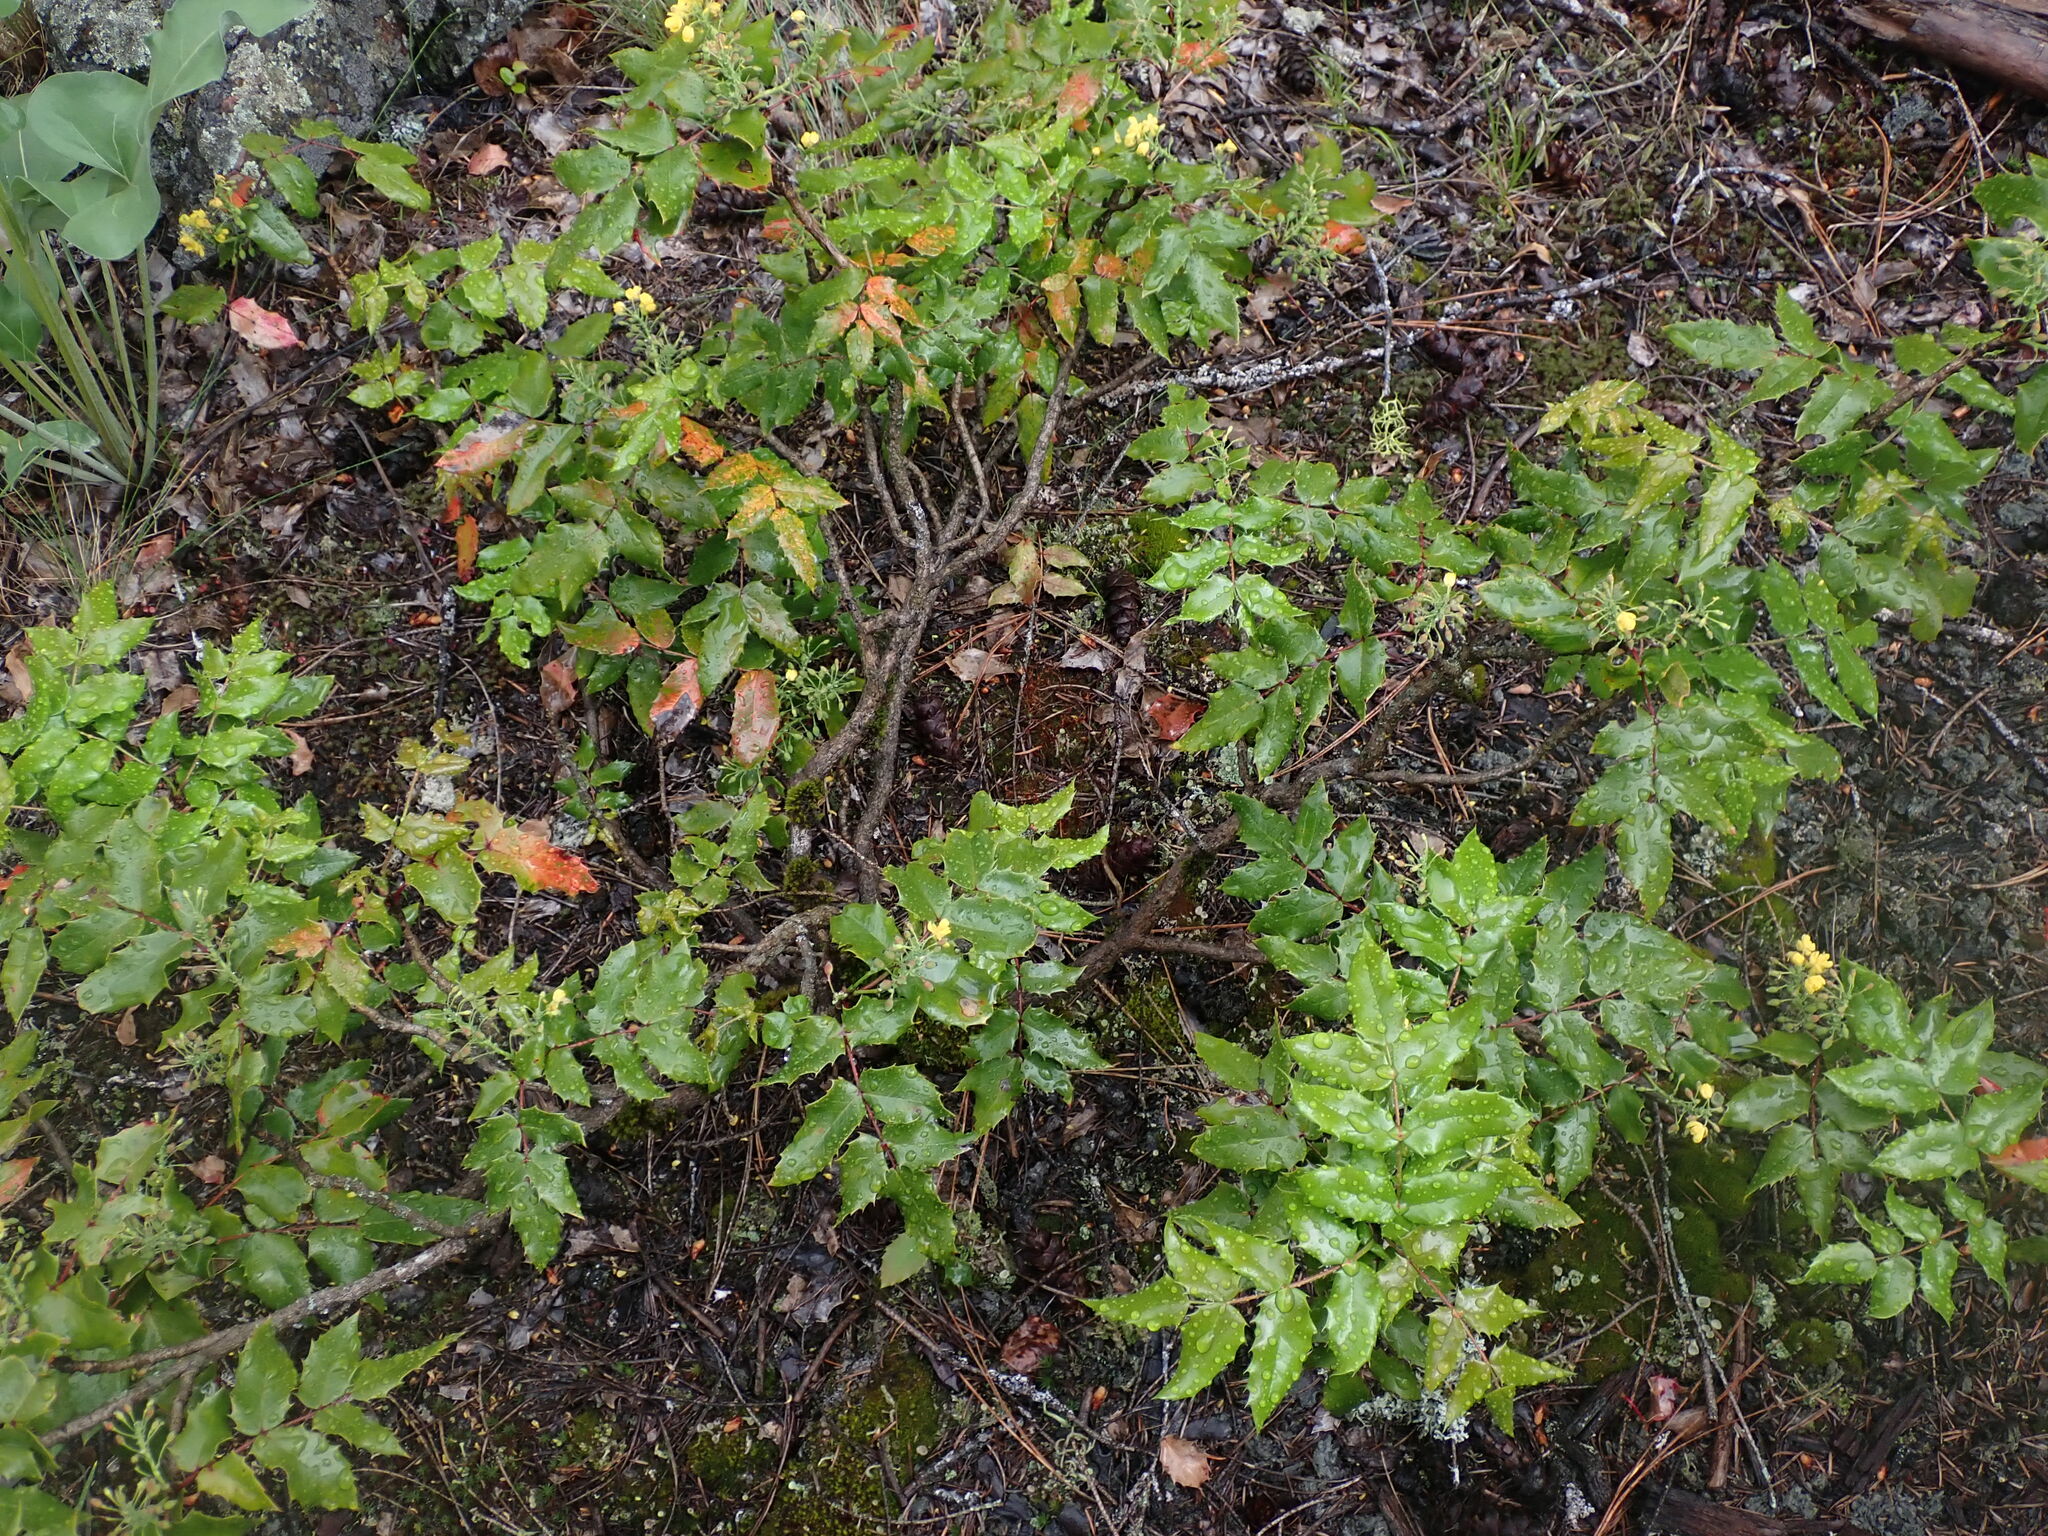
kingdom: Plantae
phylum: Tracheophyta
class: Magnoliopsida
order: Ranunculales
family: Berberidaceae
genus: Mahonia
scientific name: Mahonia aquifolium
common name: Oregon-grape
